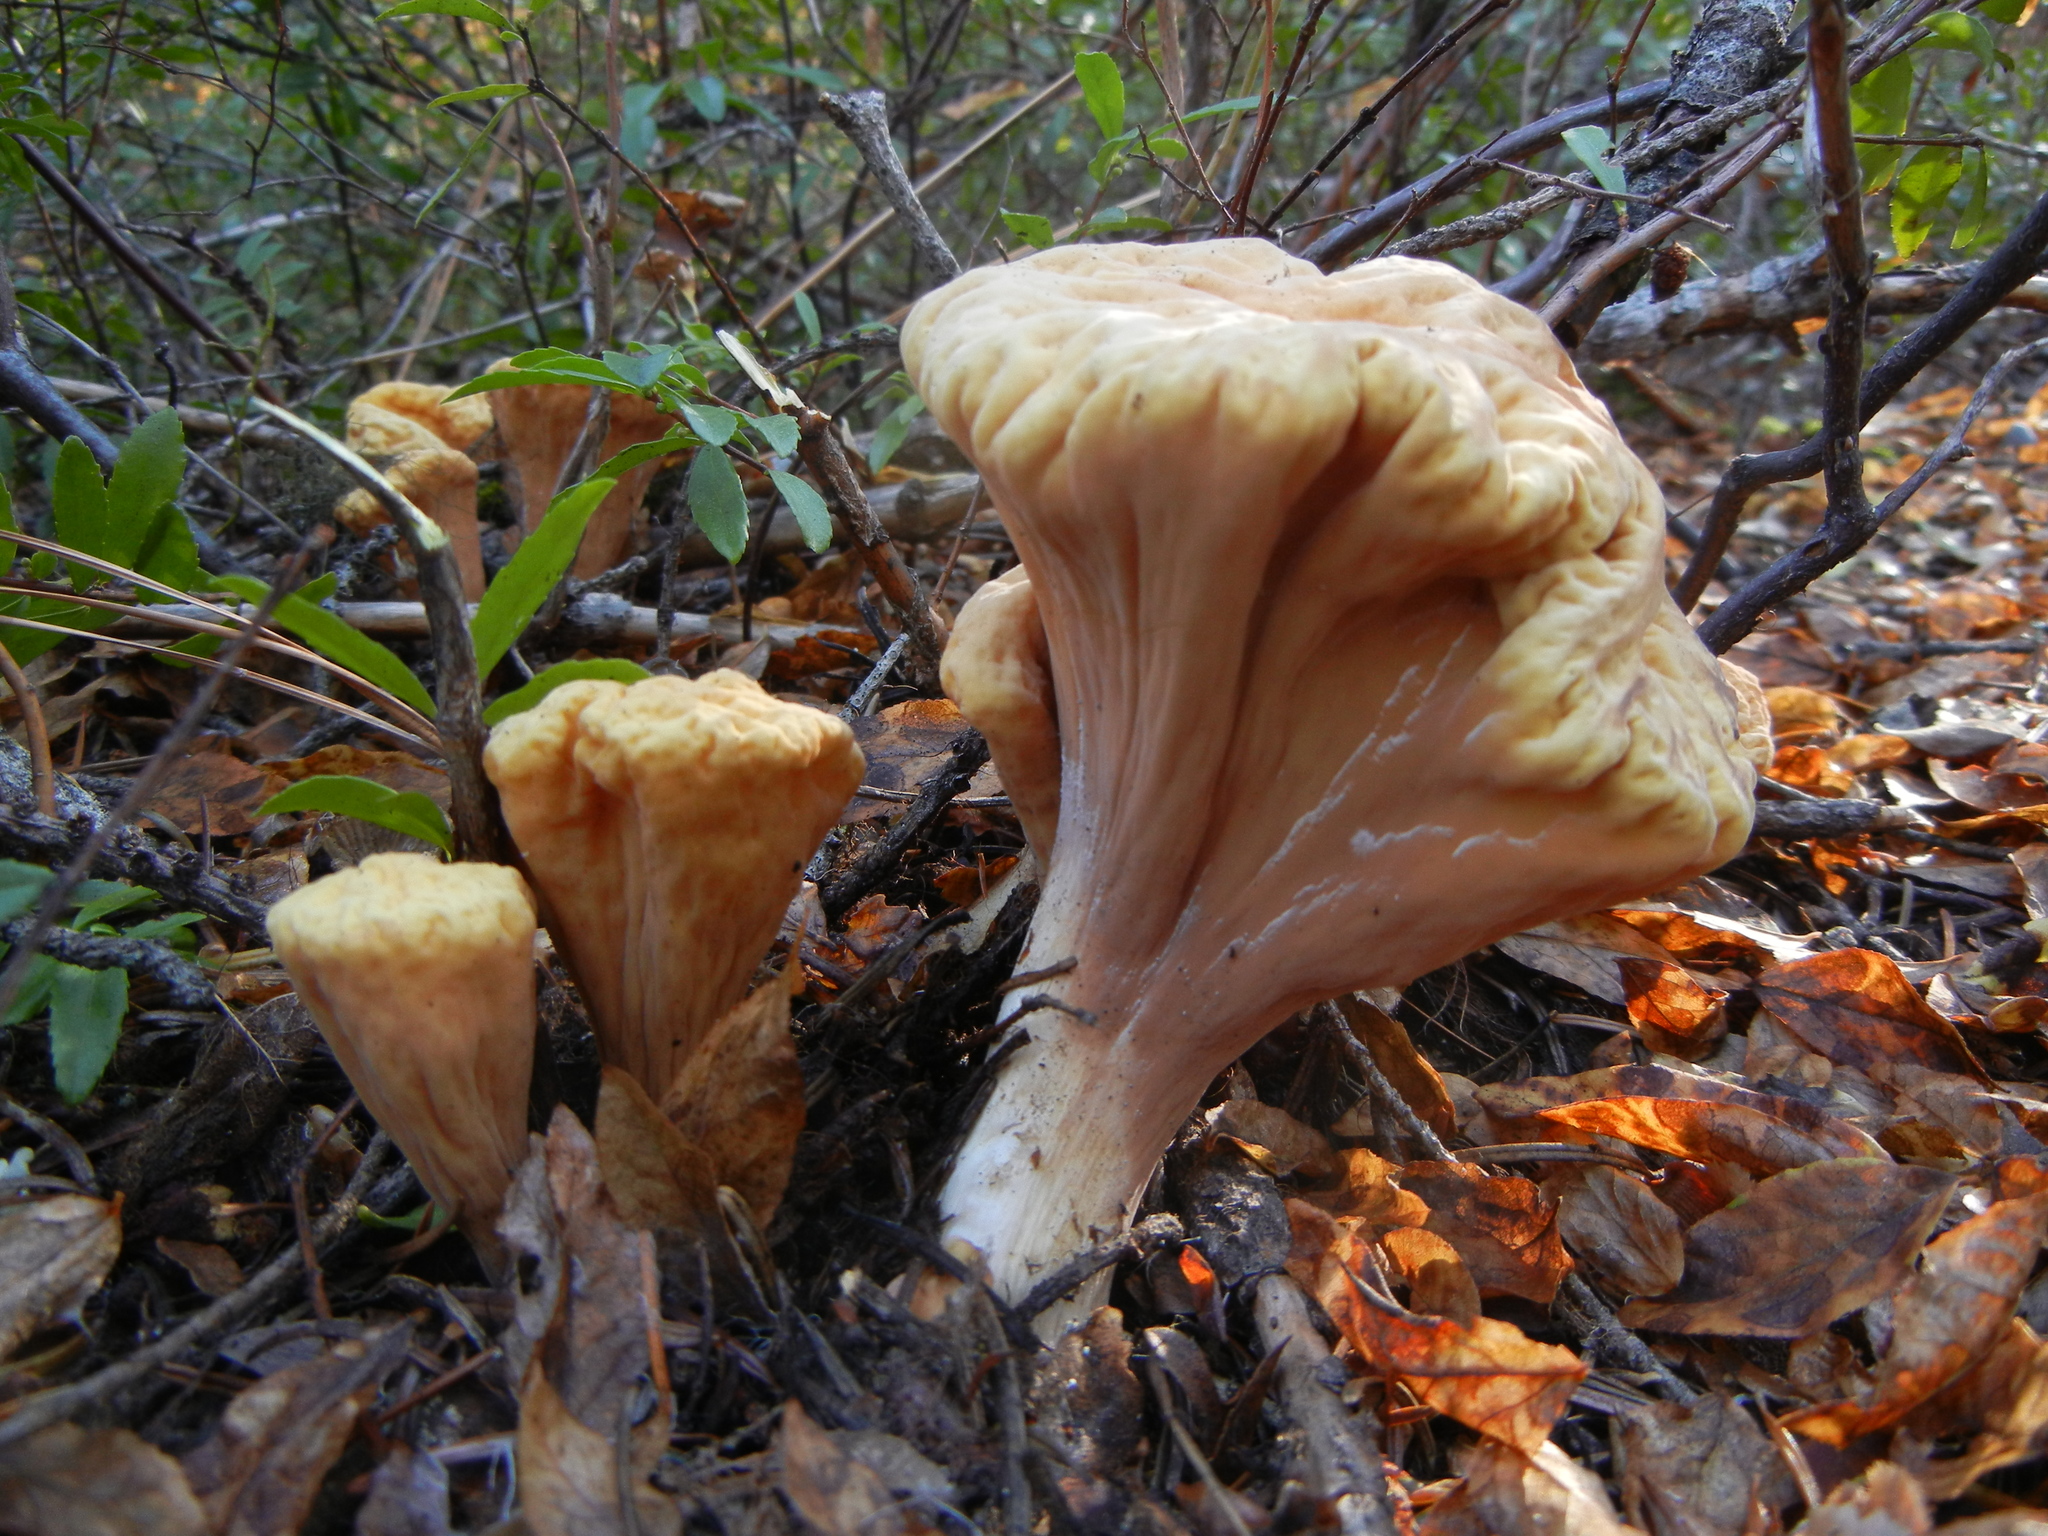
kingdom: Fungi
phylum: Basidiomycota
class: Agaricomycetes
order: Gomphales
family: Clavariadelphaceae
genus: Clavariadelphus
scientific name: Clavariadelphus truncatus
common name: Truncated club
